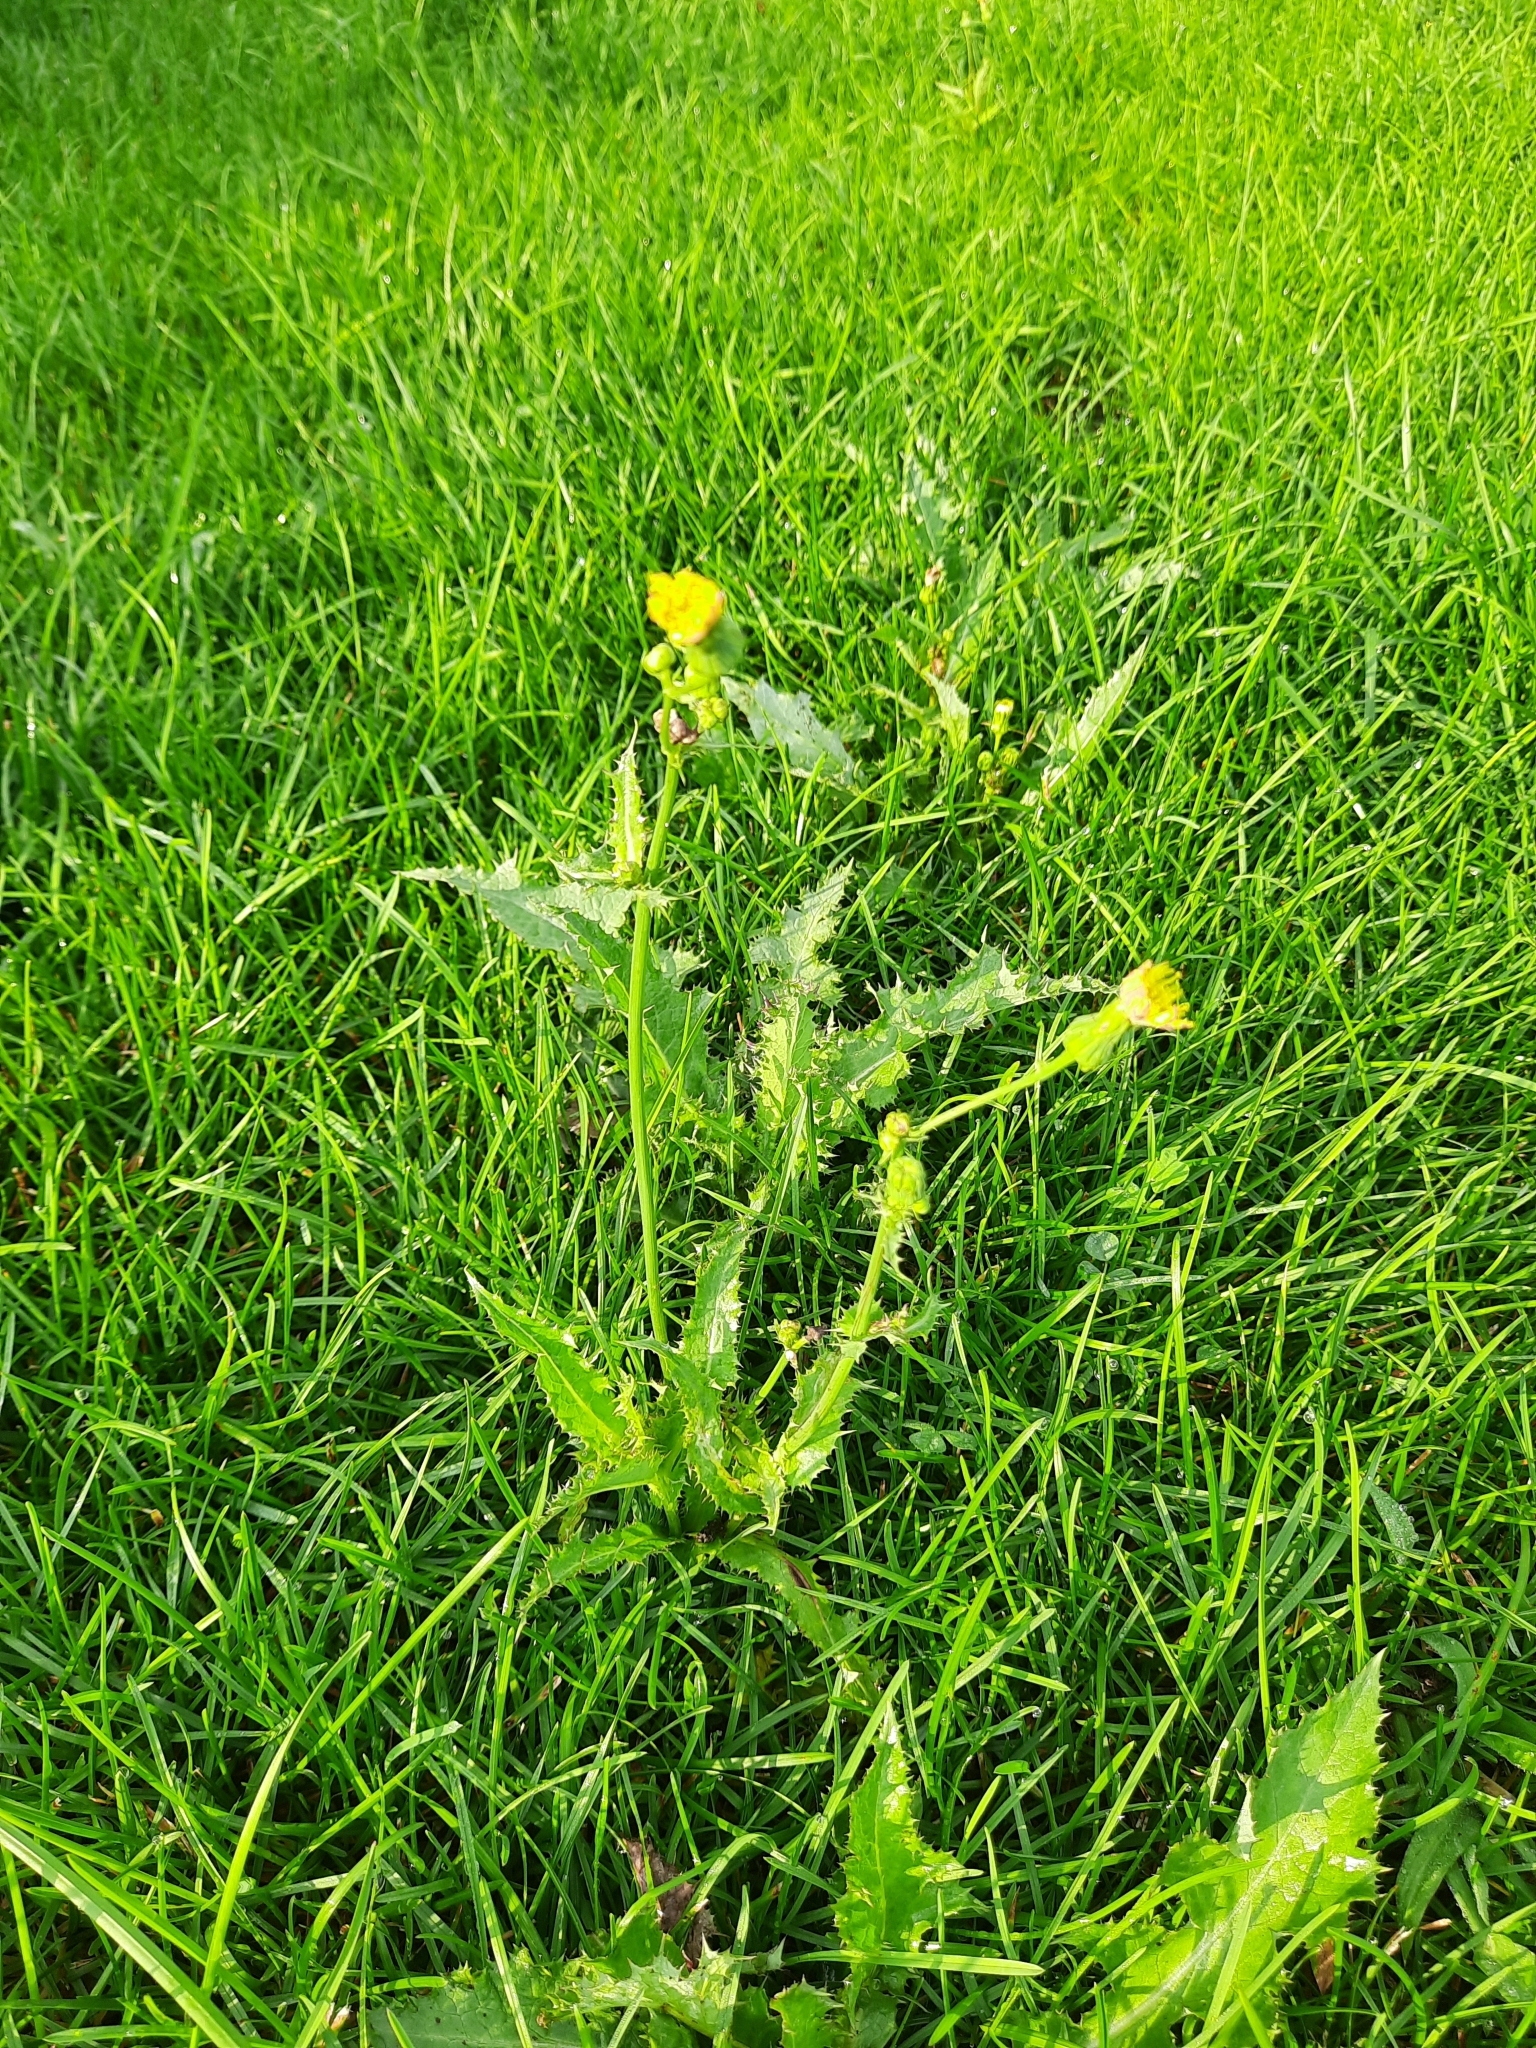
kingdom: Plantae
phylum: Tracheophyta
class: Magnoliopsida
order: Asterales
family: Asteraceae
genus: Sonchus
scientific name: Sonchus asper
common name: Prickly sow-thistle
